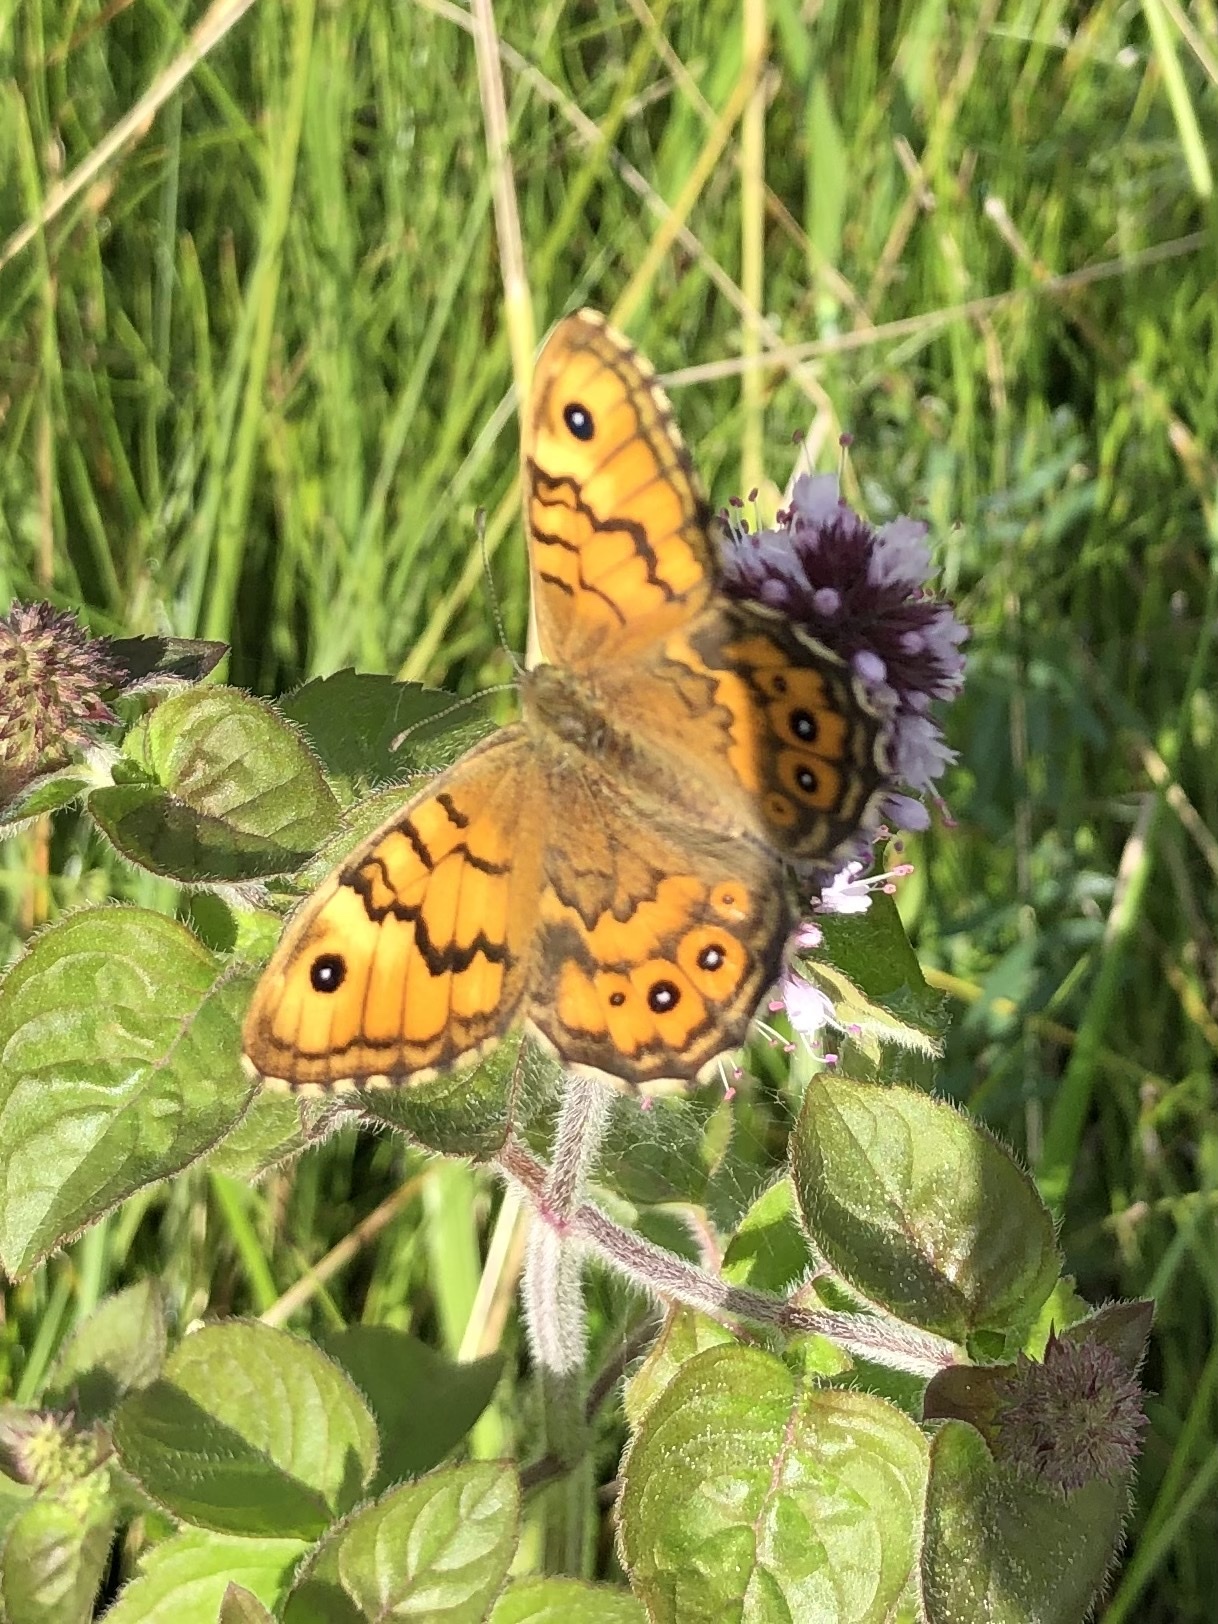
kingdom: Animalia
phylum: Arthropoda
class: Insecta
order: Lepidoptera
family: Nymphalidae
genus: Pararge
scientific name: Pararge Lasiommata megera
